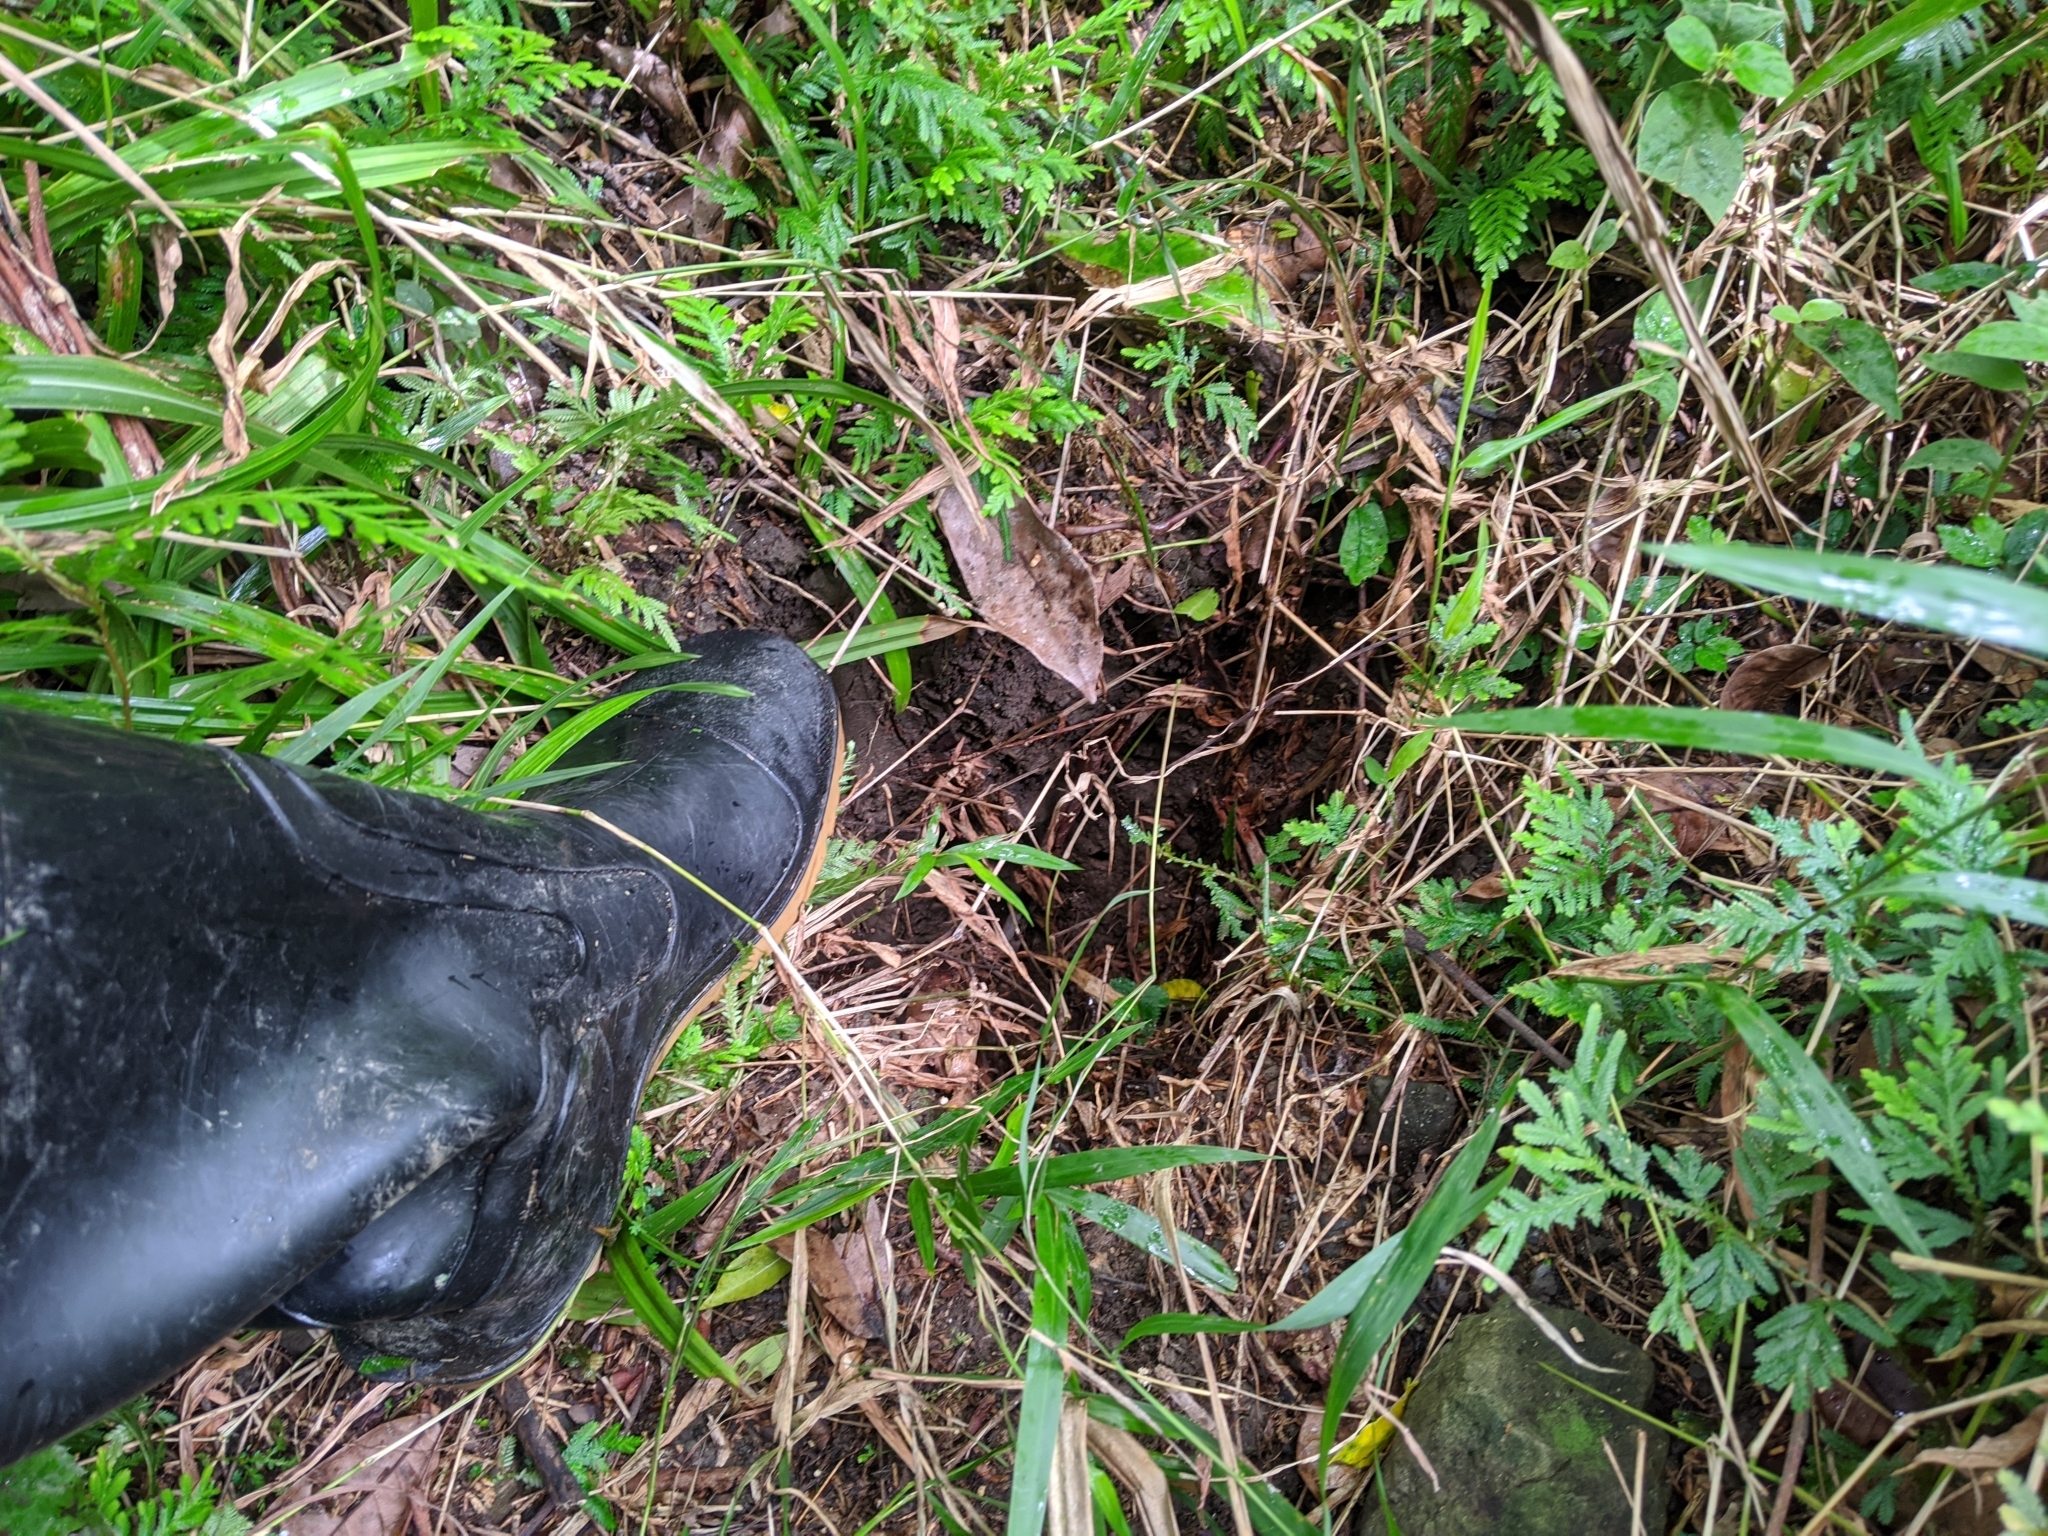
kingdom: Animalia
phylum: Chordata
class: Mammalia
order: Pholidota
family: Manidae
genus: Manis
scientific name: Manis pentadactyla
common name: Chinese pangolin
